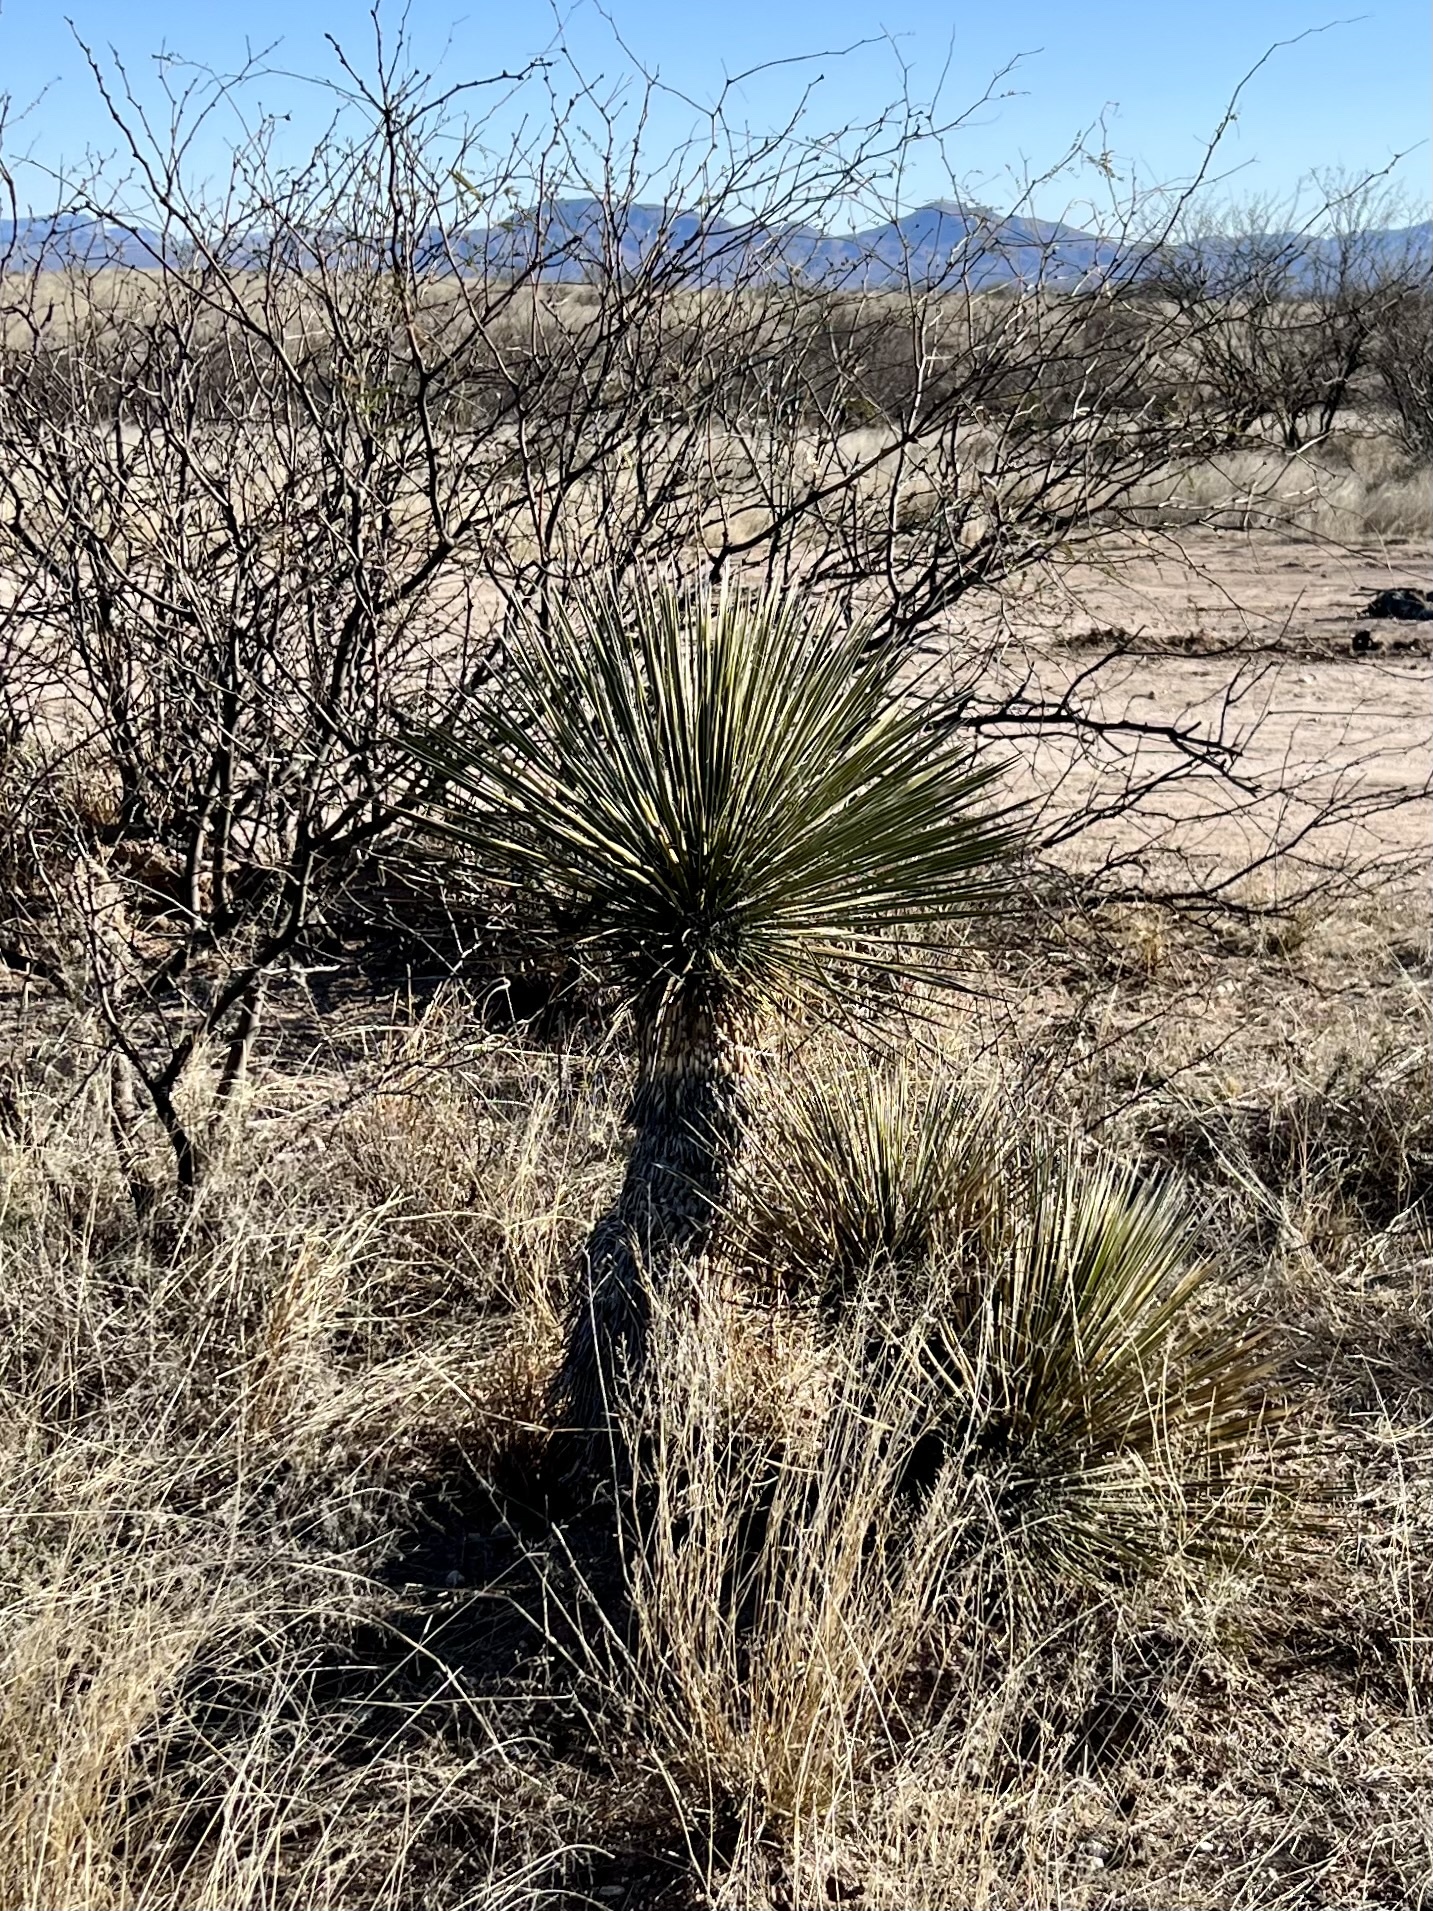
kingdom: Plantae
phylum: Tracheophyta
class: Liliopsida
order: Asparagales
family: Asparagaceae
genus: Yucca
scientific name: Yucca elata
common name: Palmella
